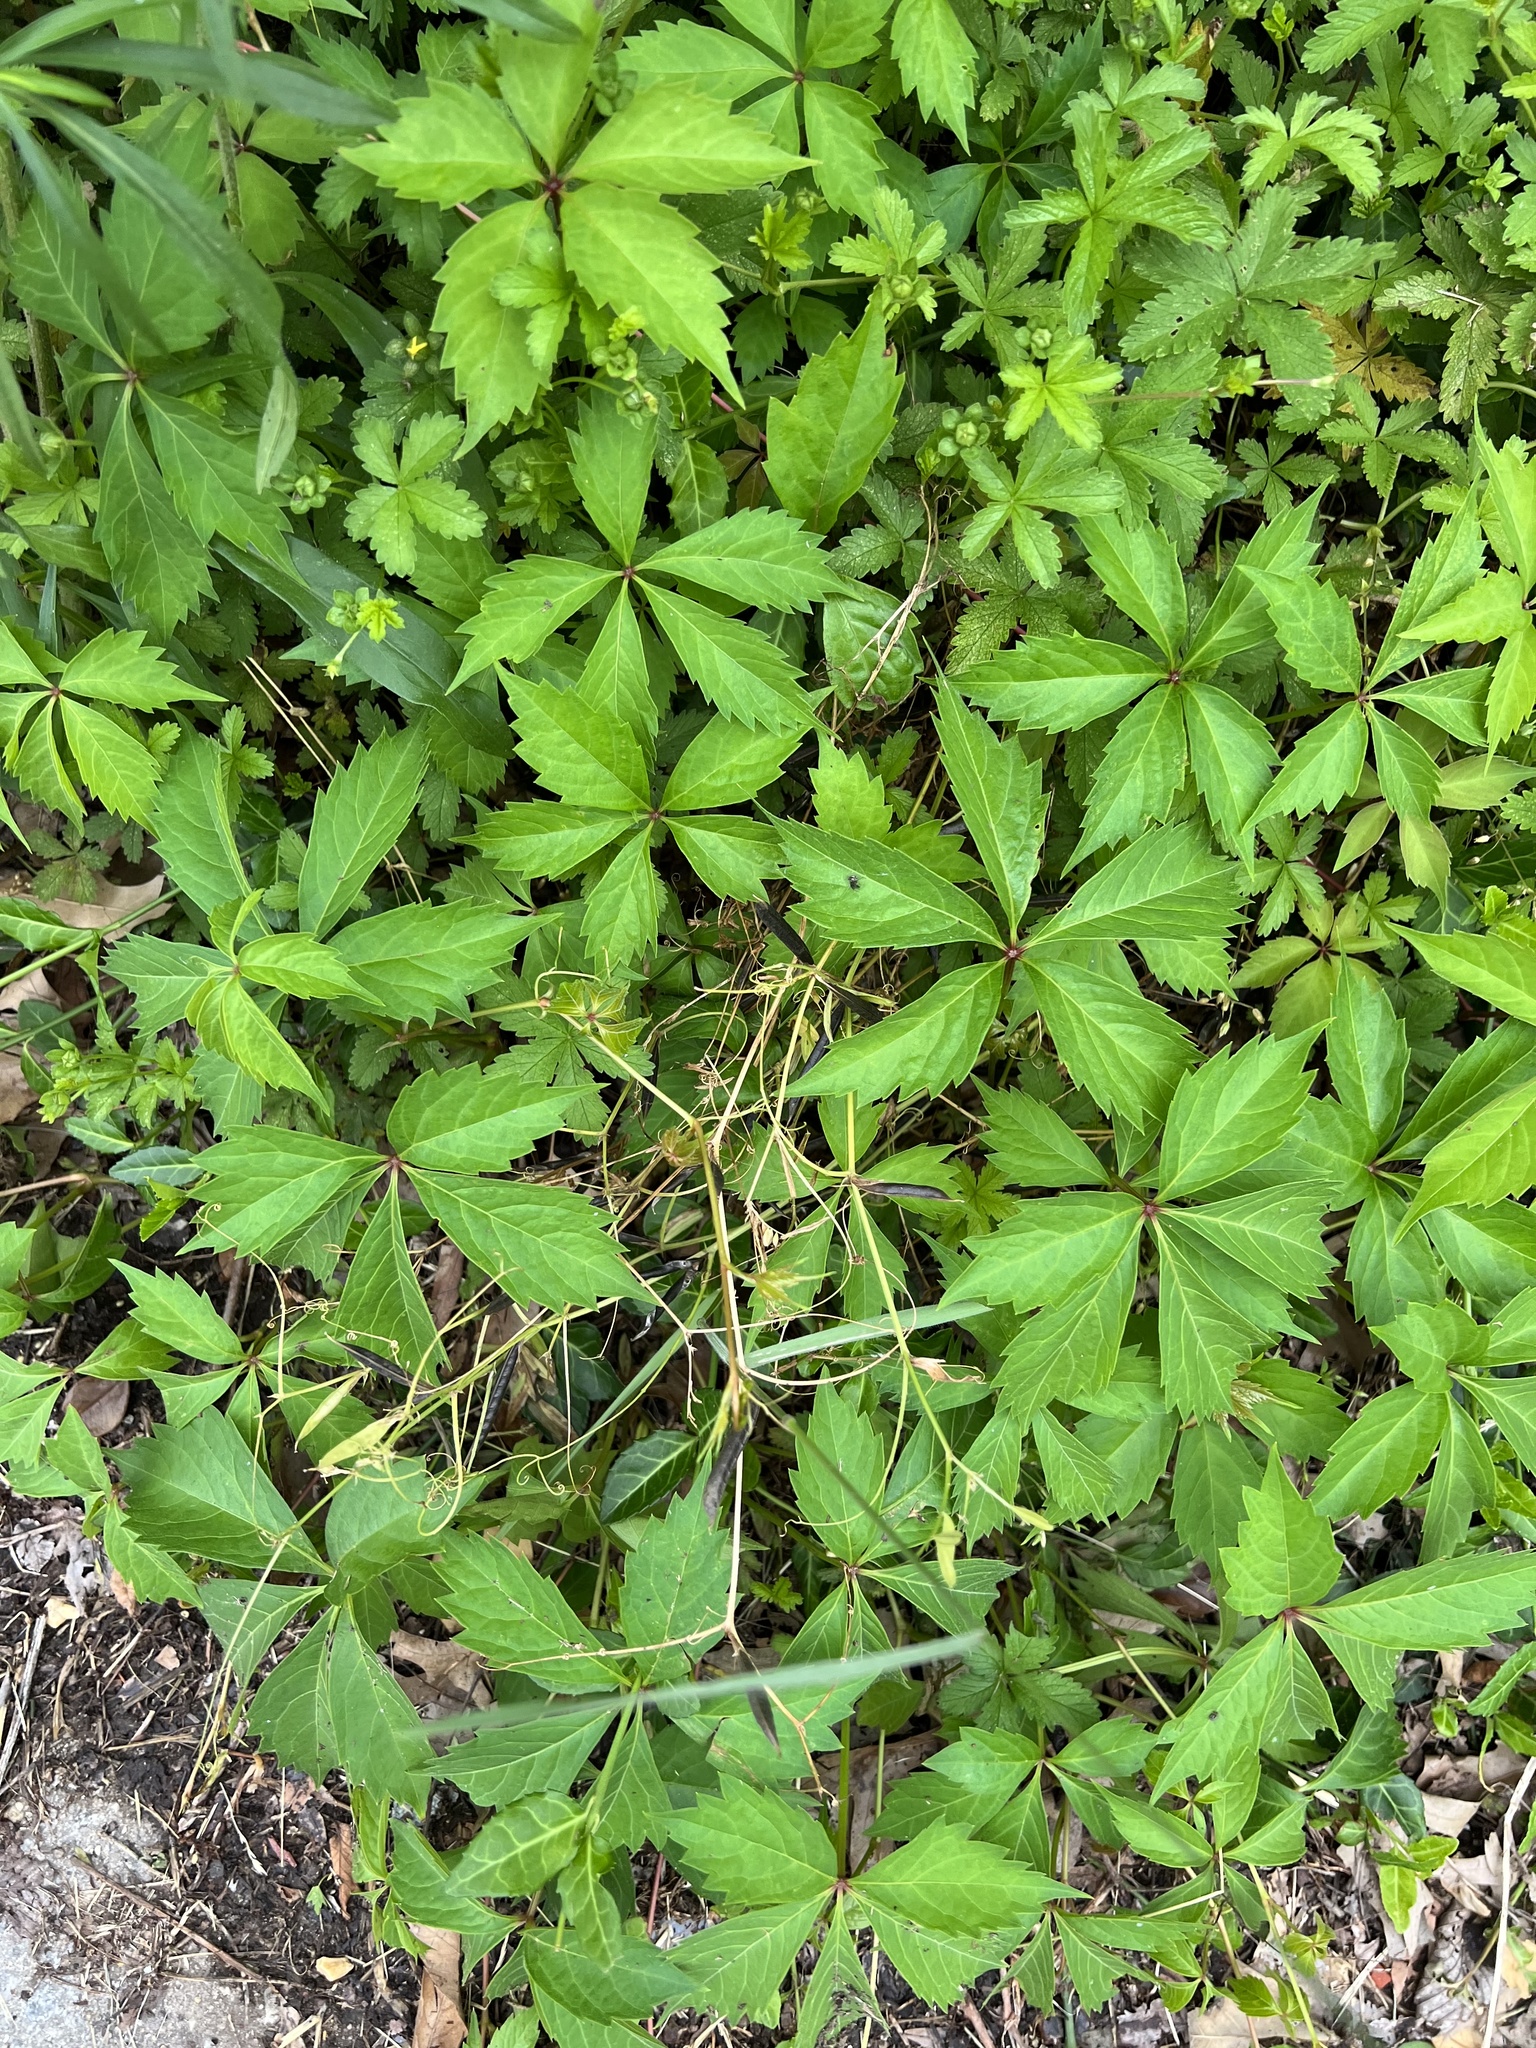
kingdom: Plantae
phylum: Tracheophyta
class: Magnoliopsida
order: Vitales
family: Vitaceae
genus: Parthenocissus
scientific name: Parthenocissus quinquefolia
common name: Virginia-creeper
